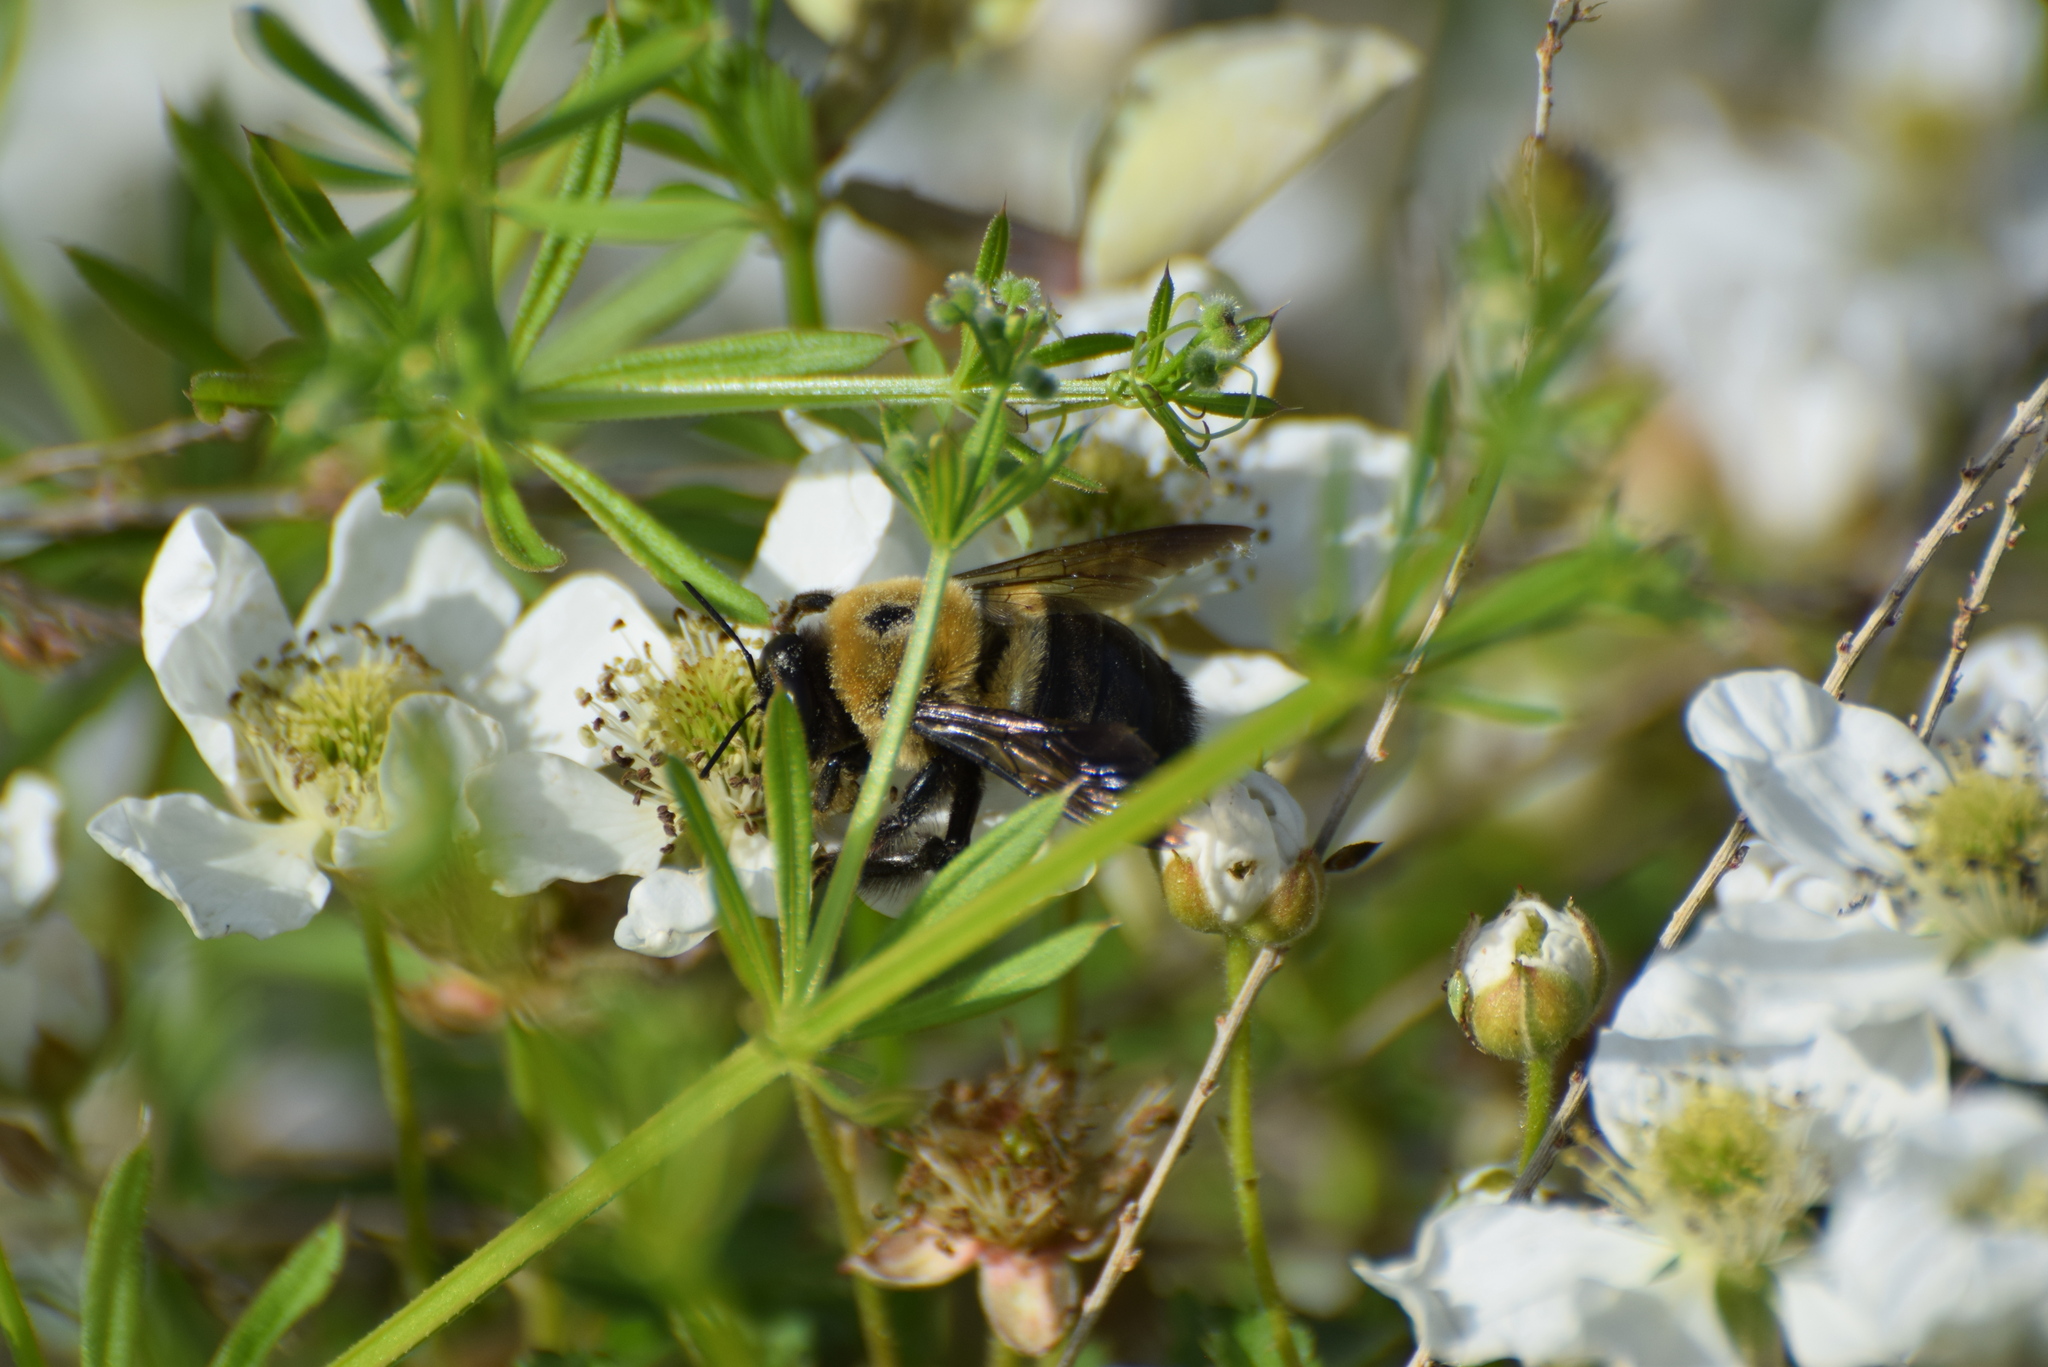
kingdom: Animalia
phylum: Arthropoda
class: Insecta
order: Hymenoptera
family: Apidae
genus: Xylocopa
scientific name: Xylocopa virginica
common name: Carpenter bee
